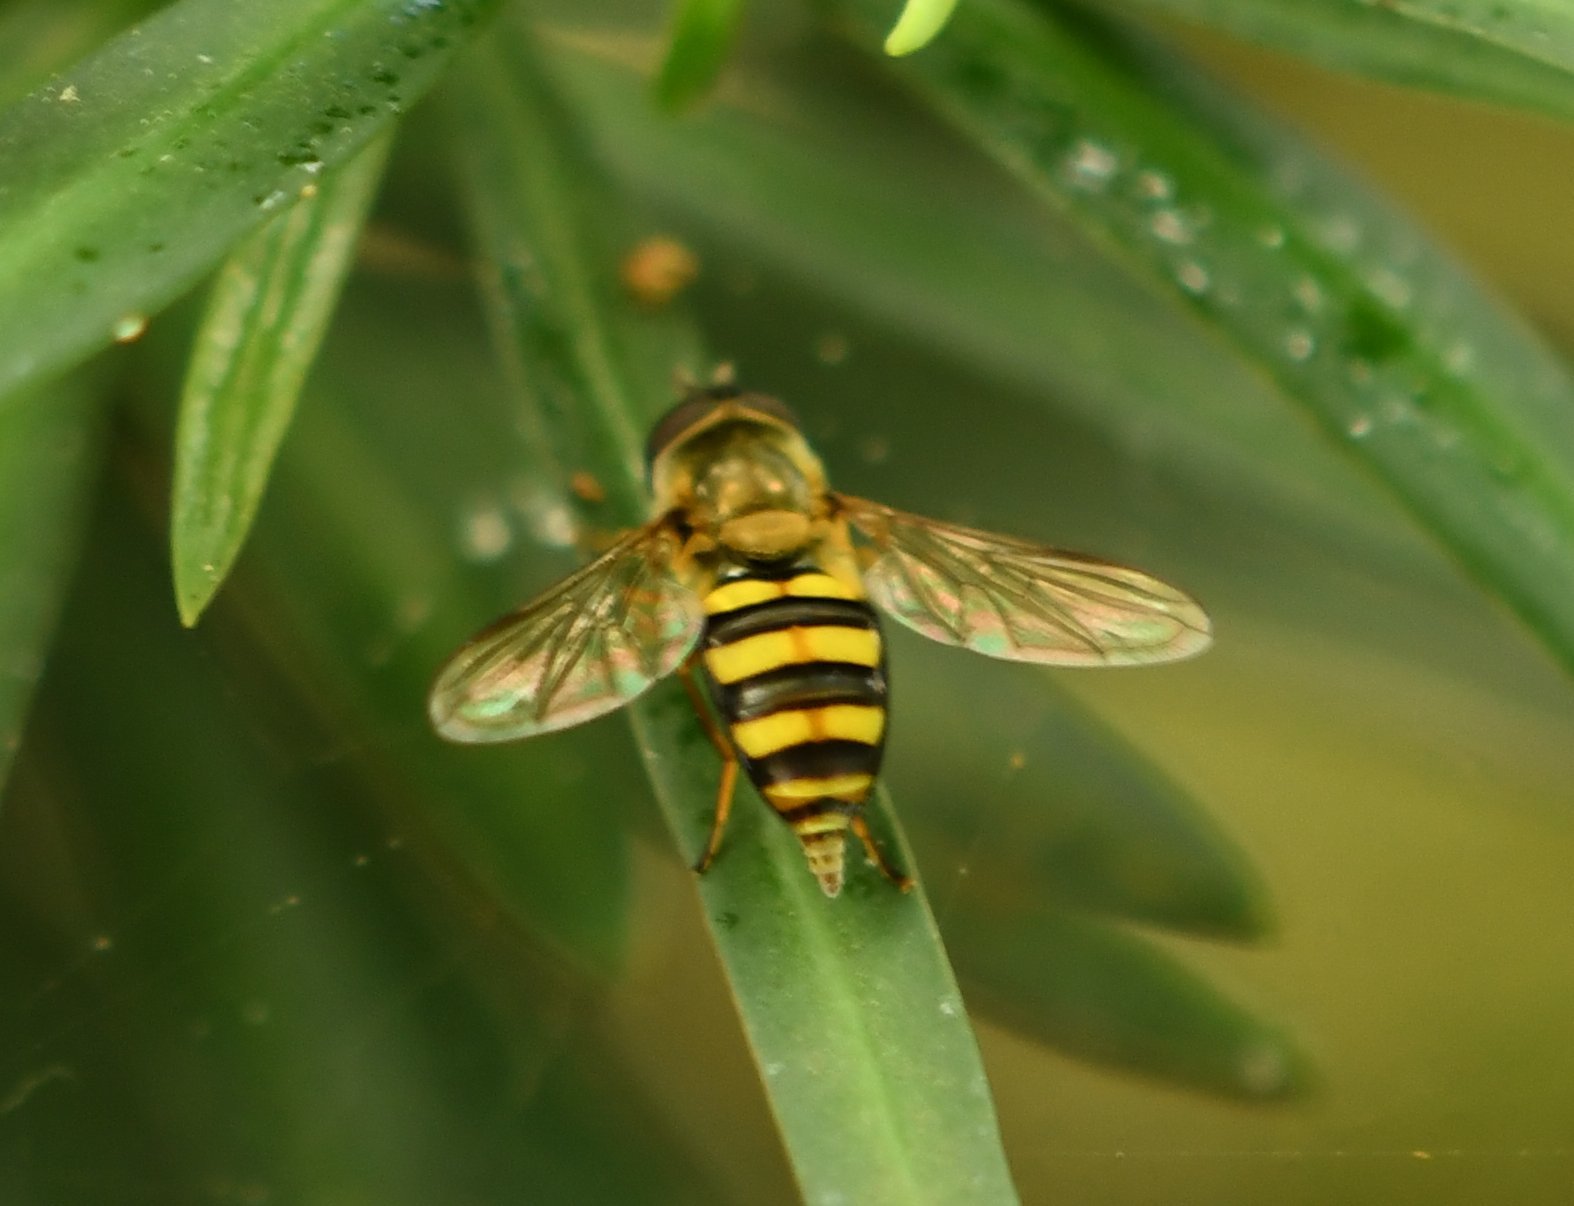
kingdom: Animalia
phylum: Arthropoda
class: Insecta
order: Diptera
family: Syrphidae
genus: Eupeodes
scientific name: Eupeodes
